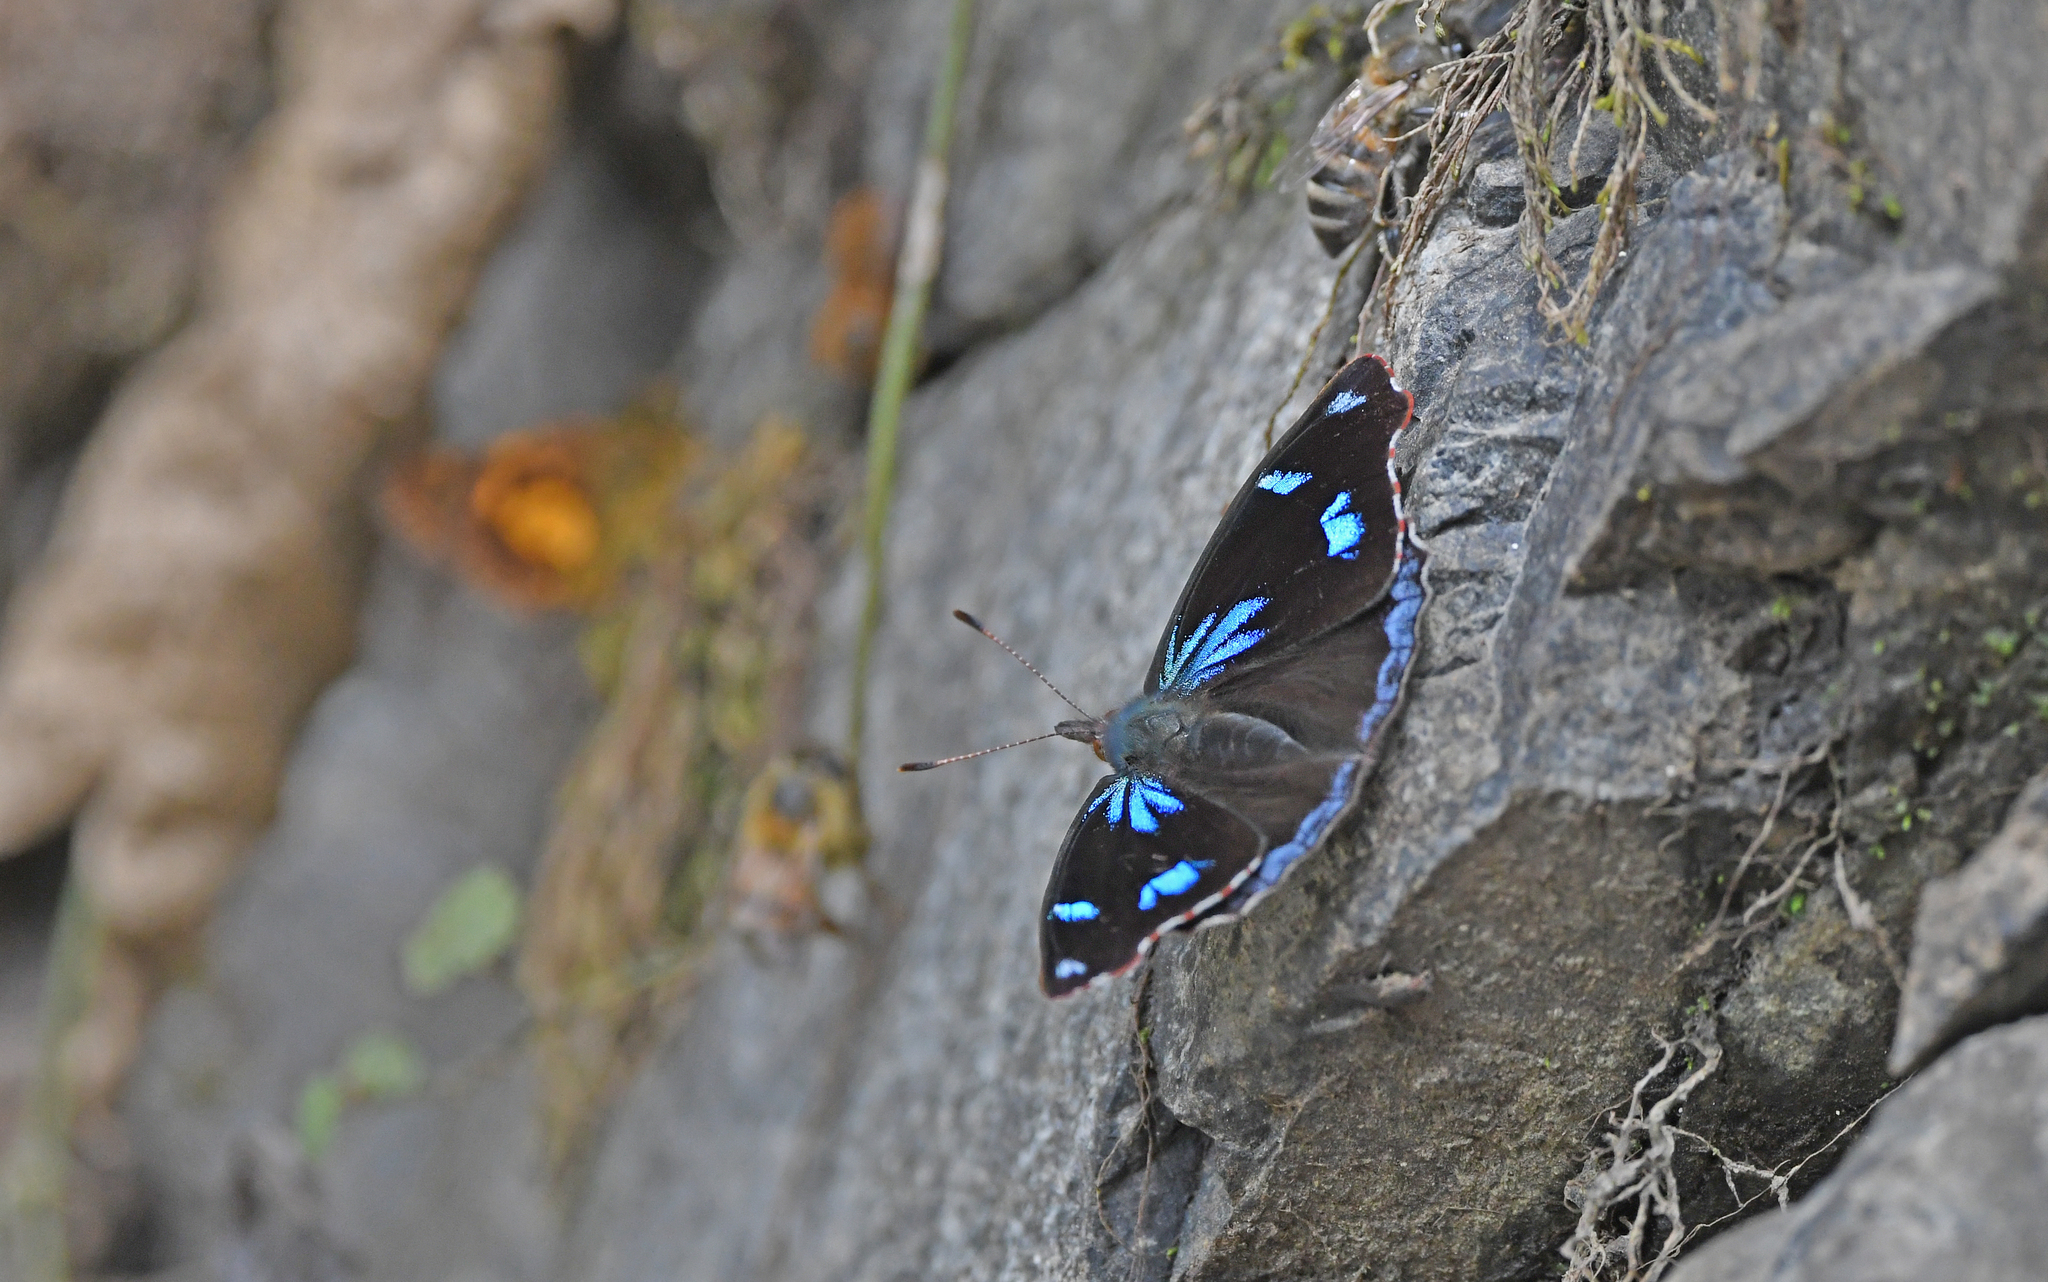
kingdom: Animalia
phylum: Arthropoda
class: Insecta
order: Lepidoptera
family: Nymphalidae
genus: Perisama
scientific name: Perisama diotima
